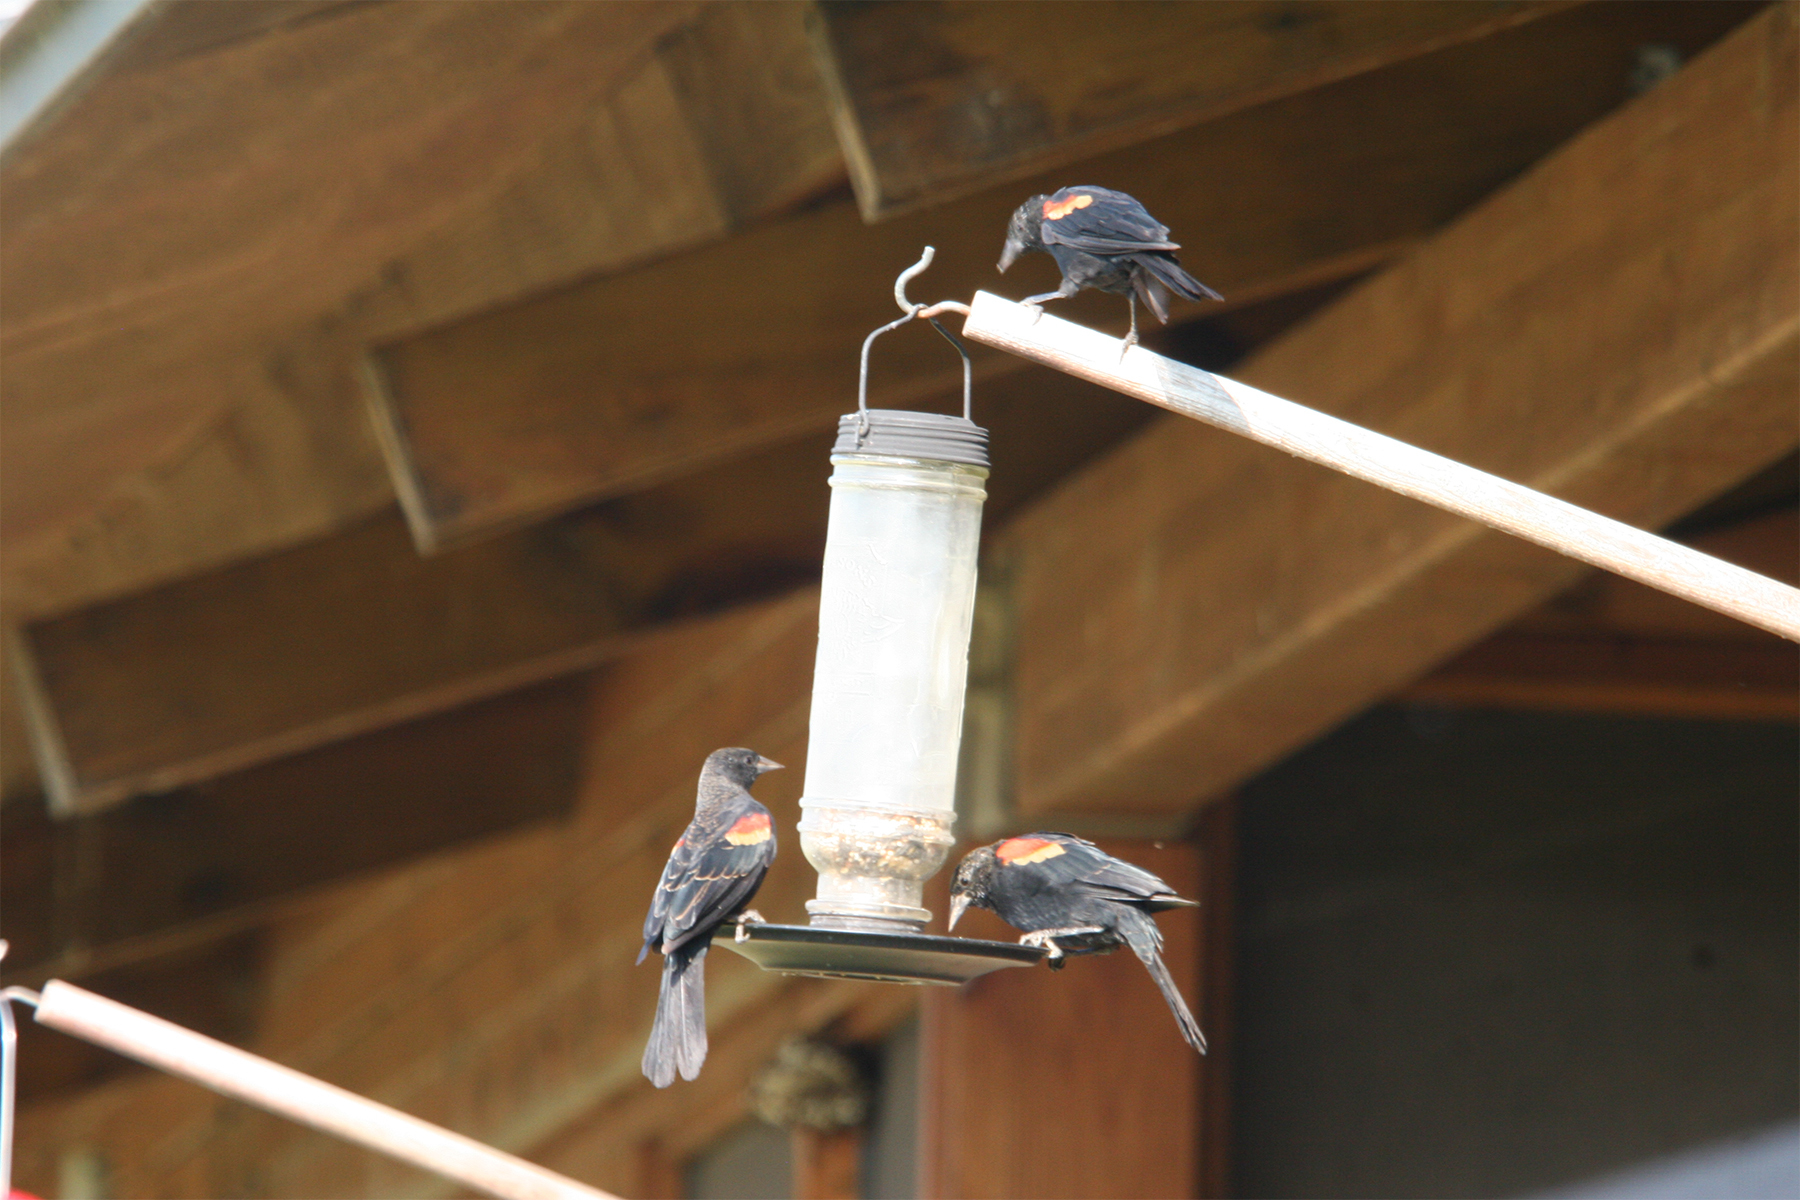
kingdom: Animalia
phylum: Chordata
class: Aves
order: Passeriformes
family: Icteridae
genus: Agelaius
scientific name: Agelaius phoeniceus
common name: Red-winged blackbird
